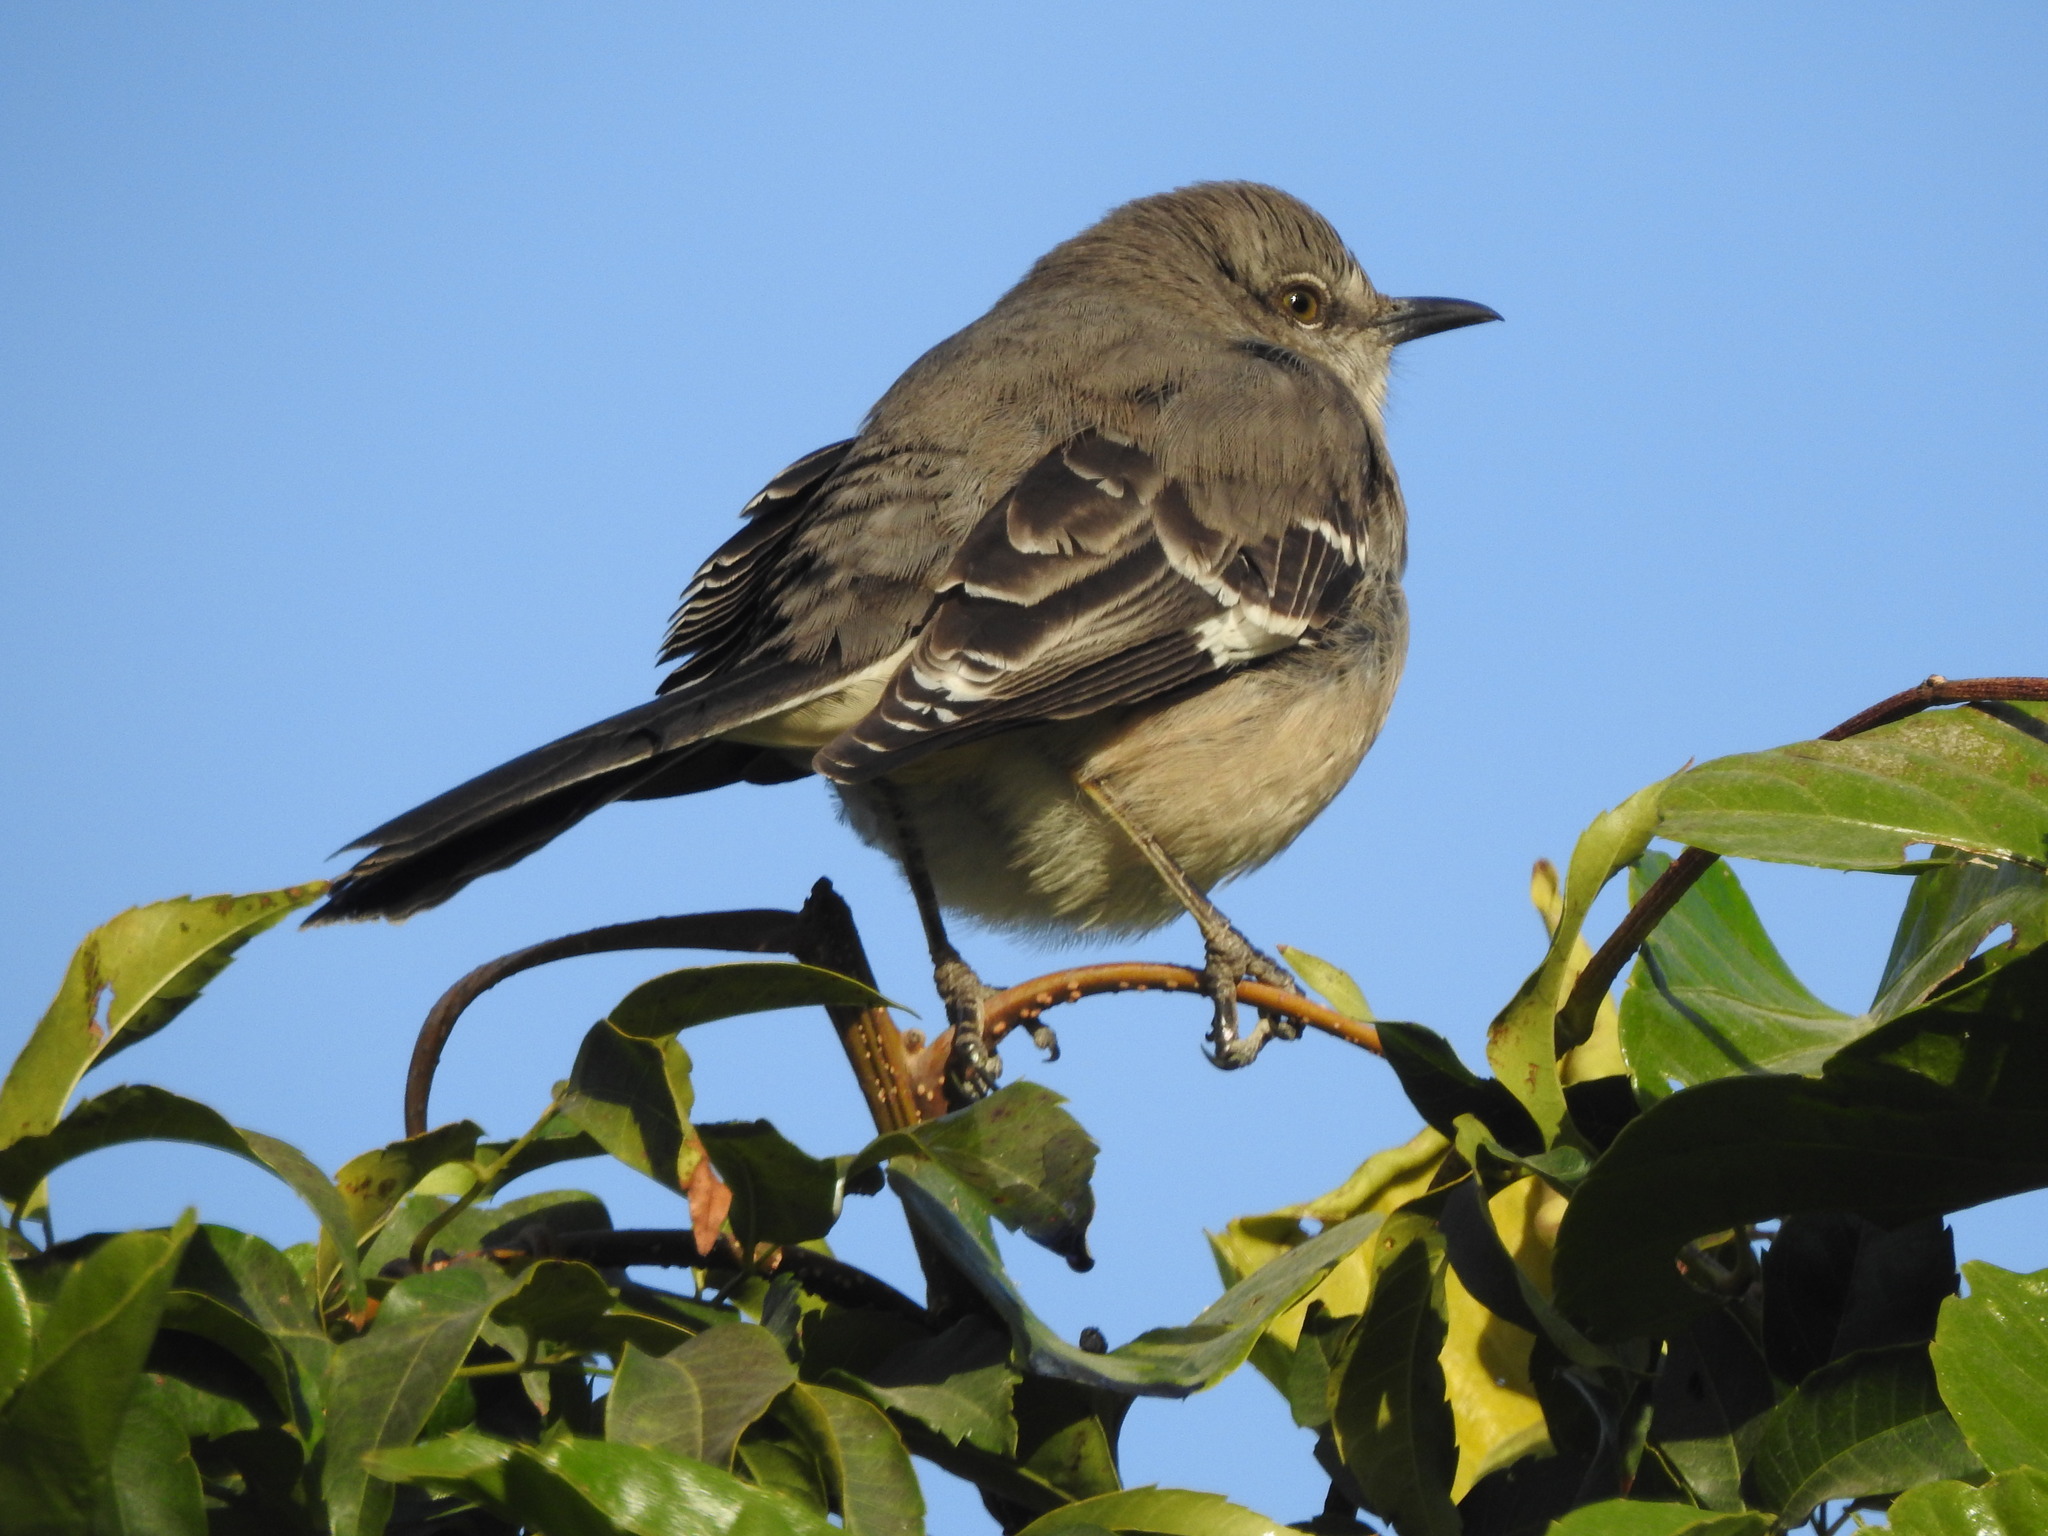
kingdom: Animalia
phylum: Chordata
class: Aves
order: Passeriformes
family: Mimidae
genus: Mimus
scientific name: Mimus polyglottos
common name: Northern mockingbird
